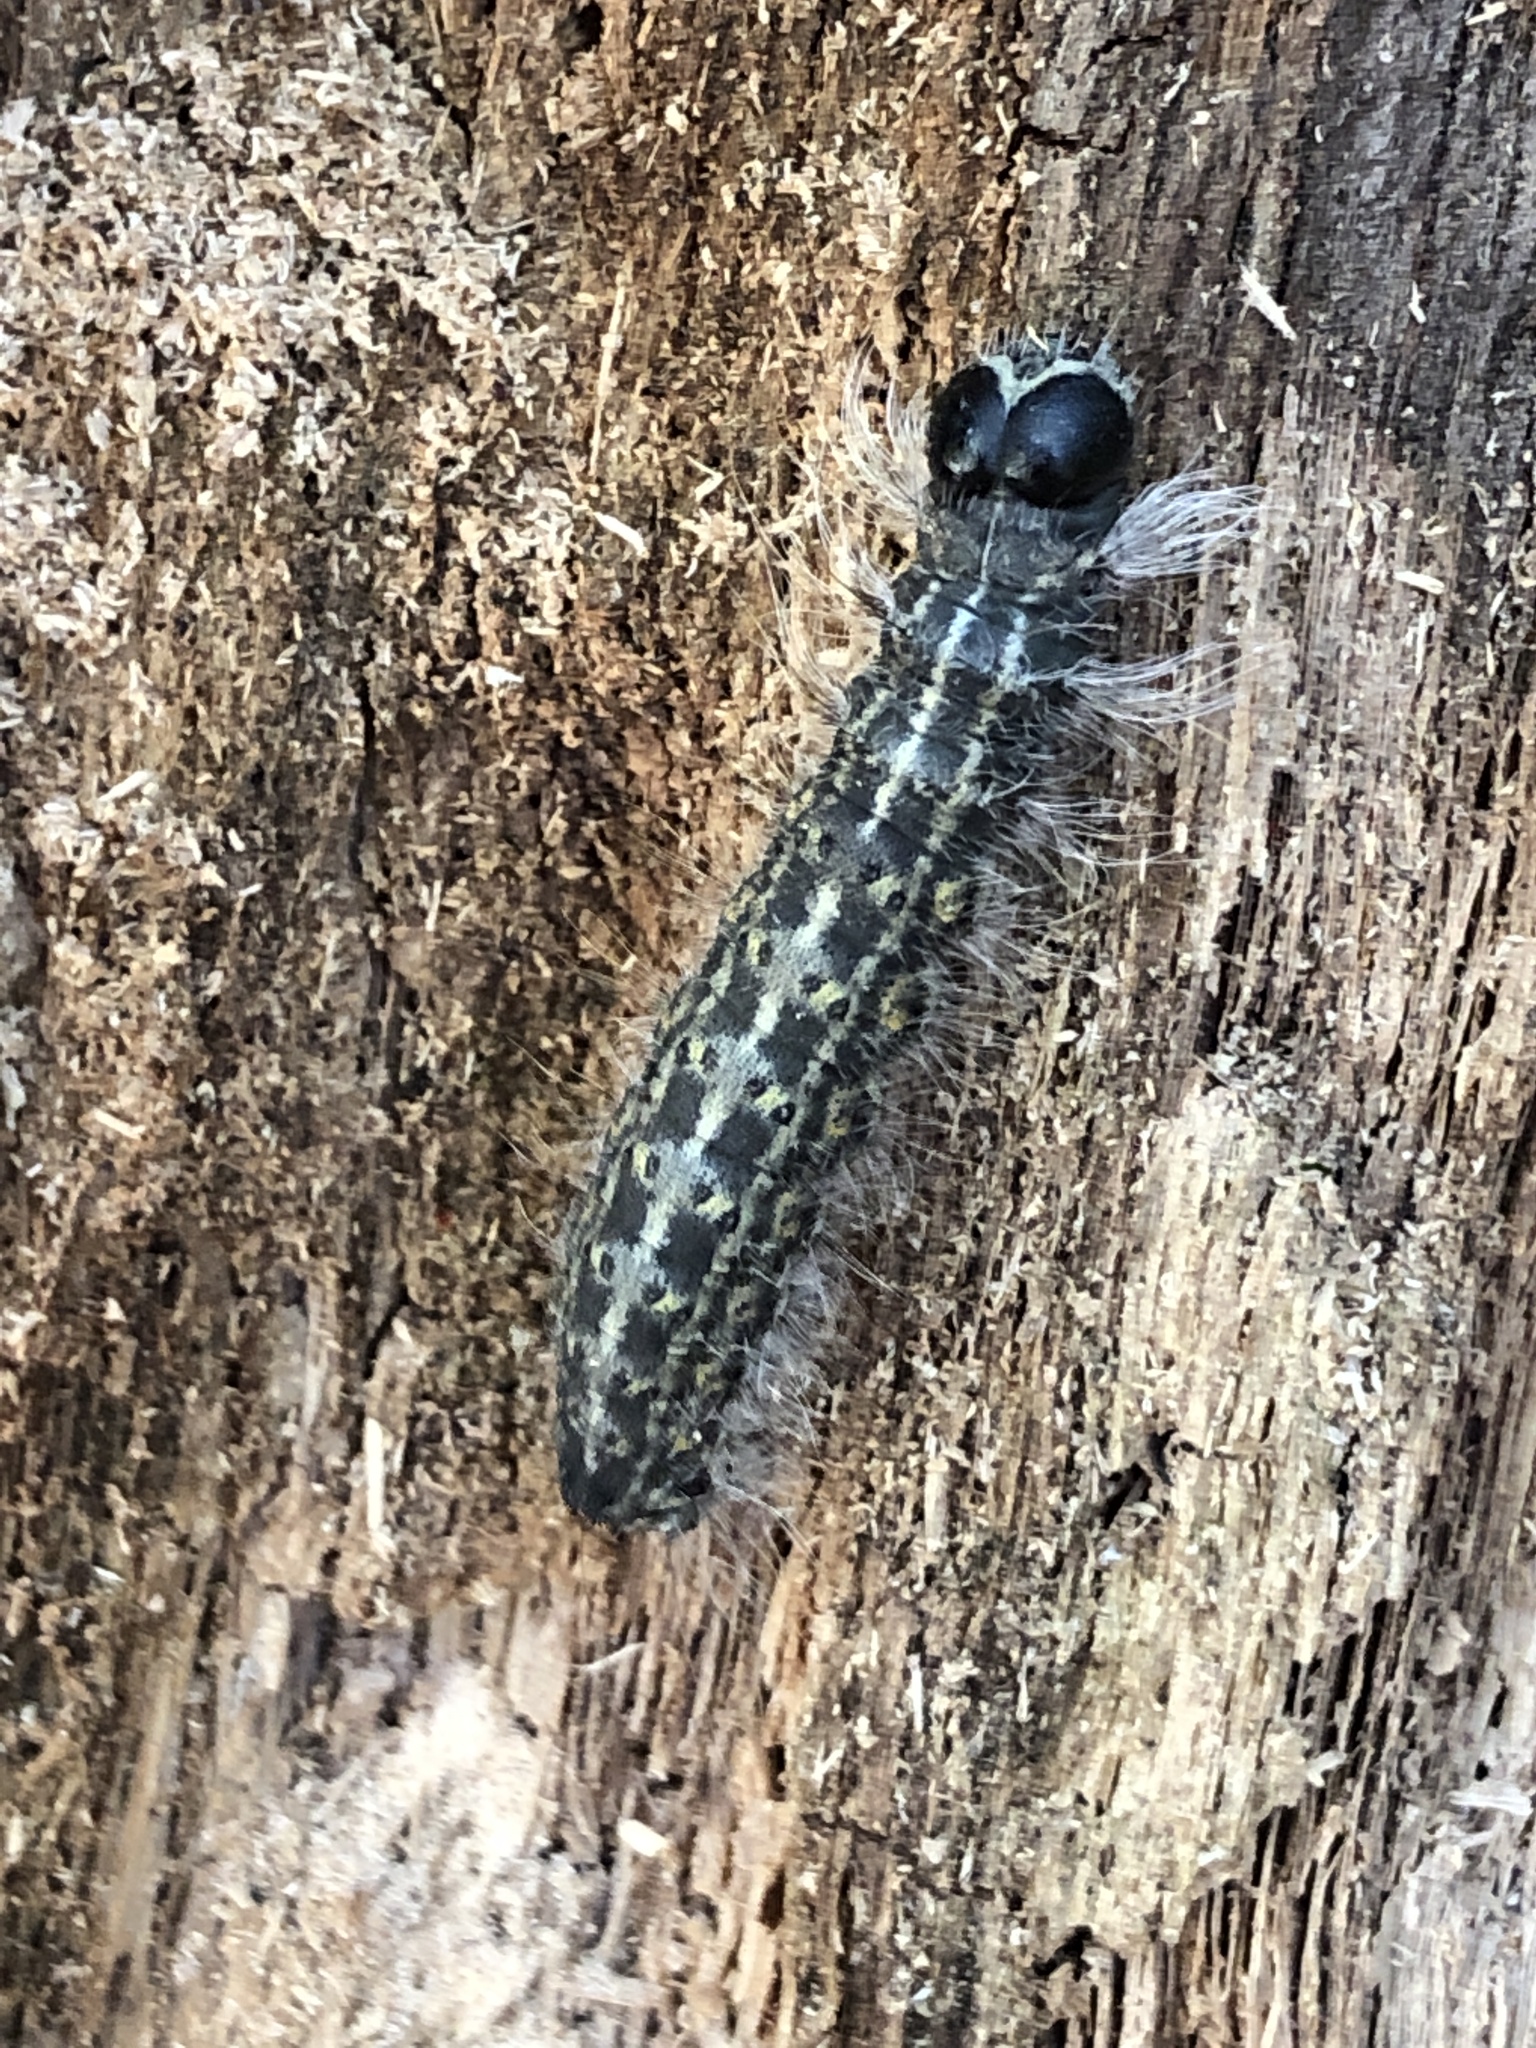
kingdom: Animalia
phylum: Arthropoda
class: Insecta
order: Lepidoptera
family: Noctuidae
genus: Acronicta
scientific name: Acronicta lobeliae
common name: Greater oak dagger
